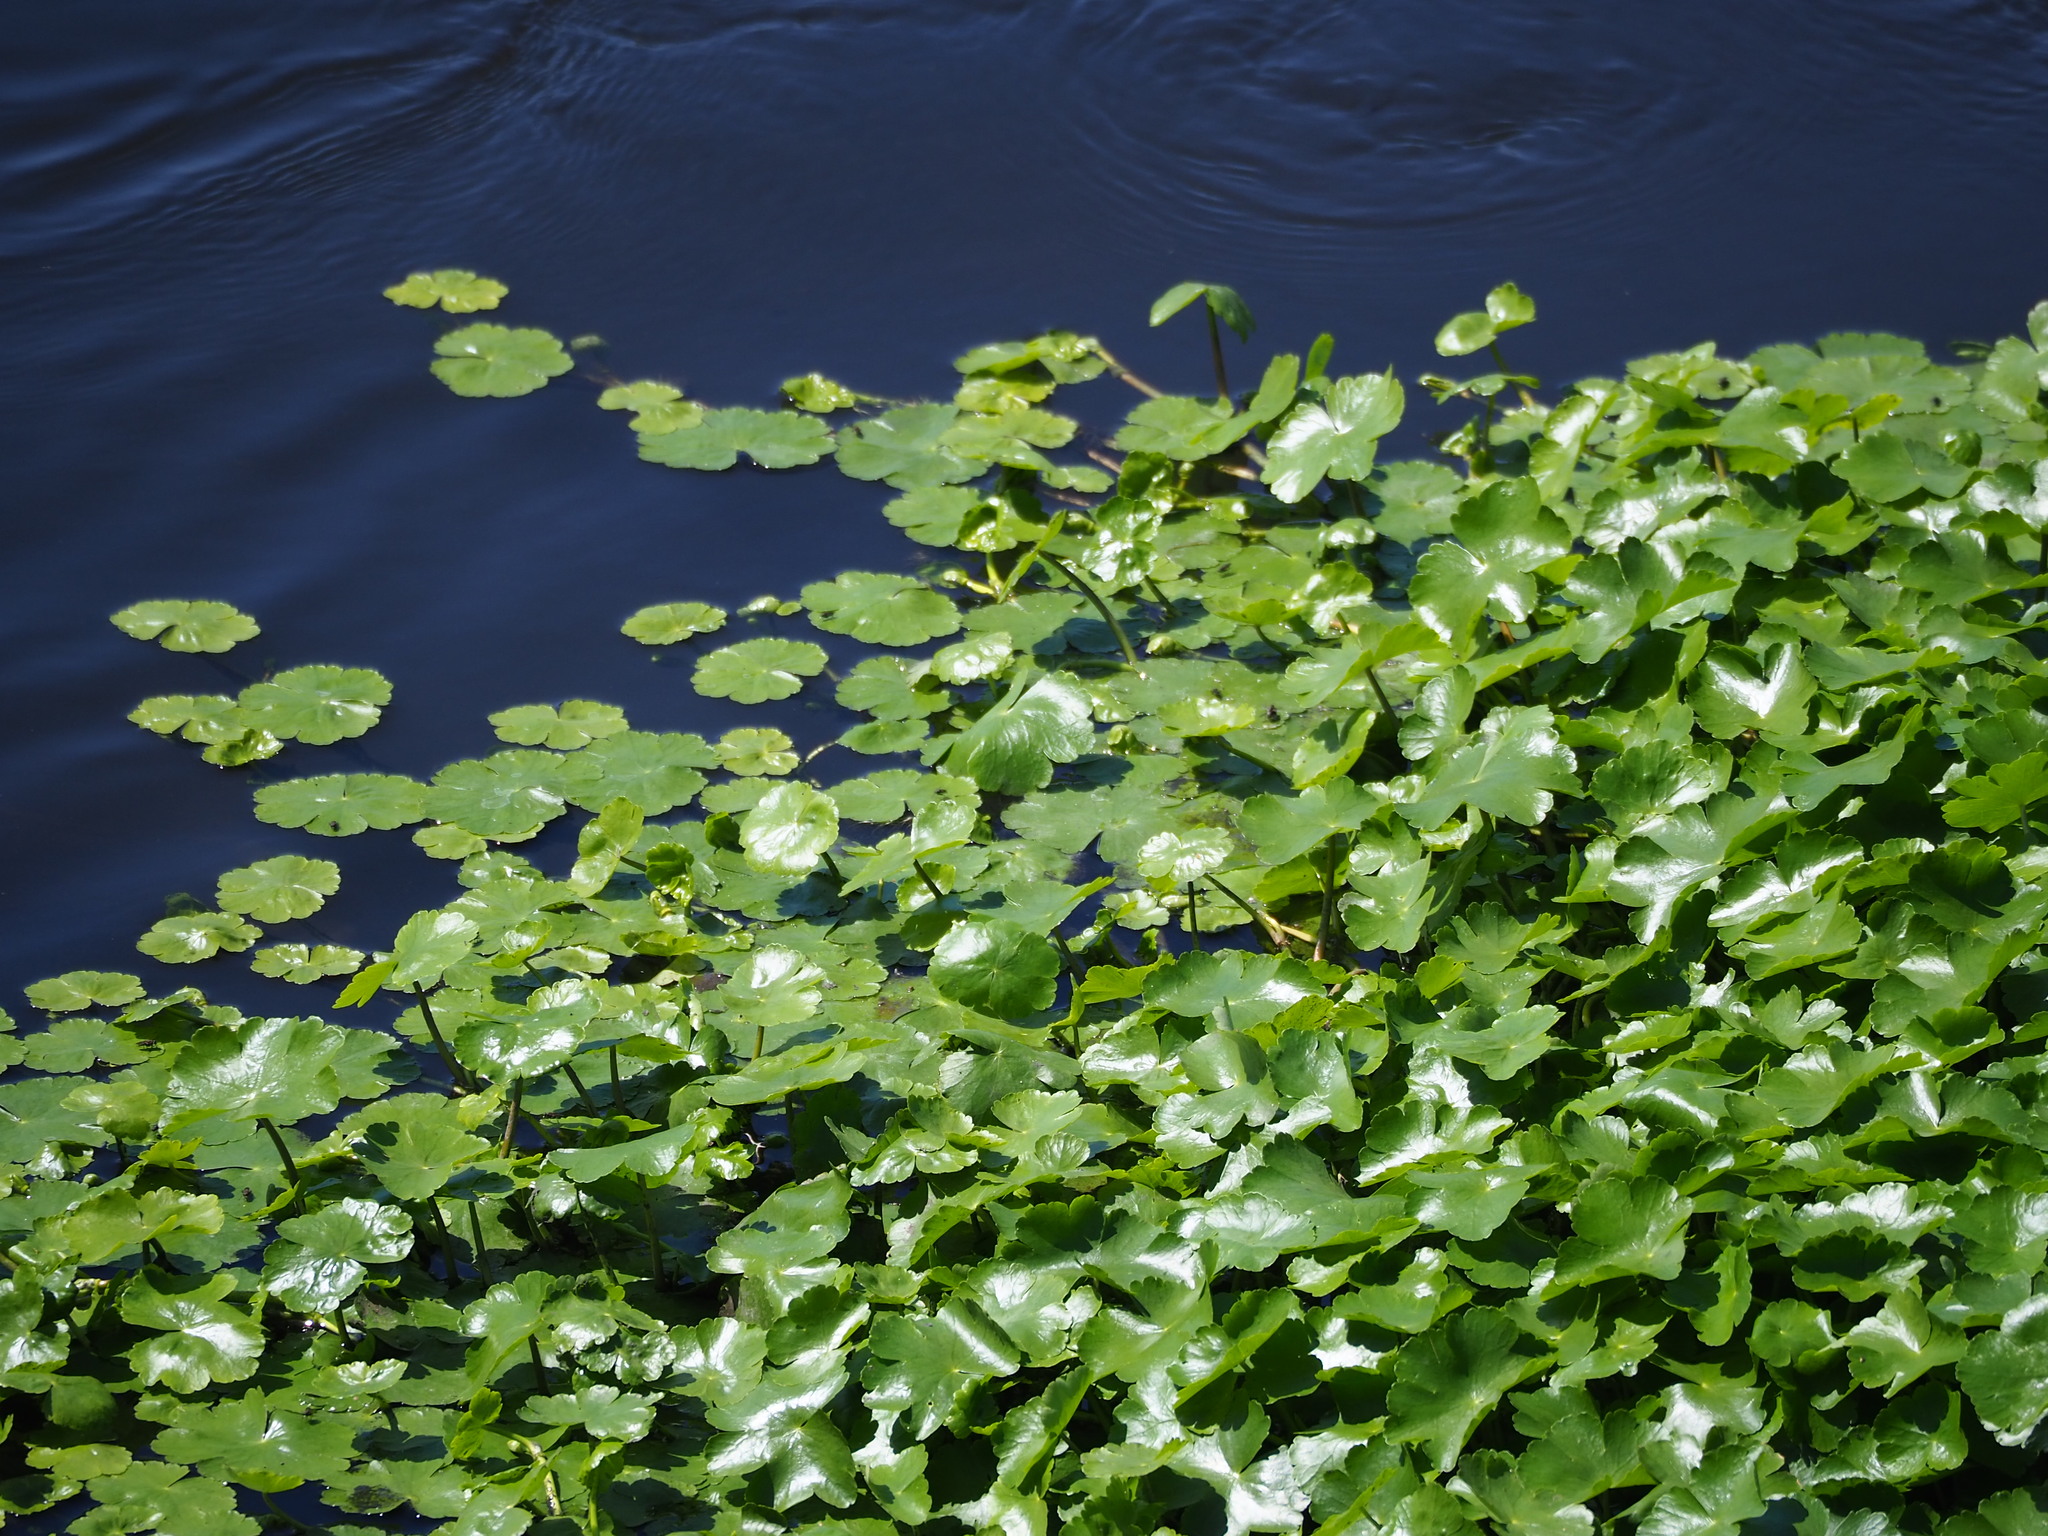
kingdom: Plantae
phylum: Tracheophyta
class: Magnoliopsida
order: Apiales
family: Araliaceae
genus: Hydrocotyle
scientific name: Hydrocotyle ranunculoides
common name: Floating pennywort
